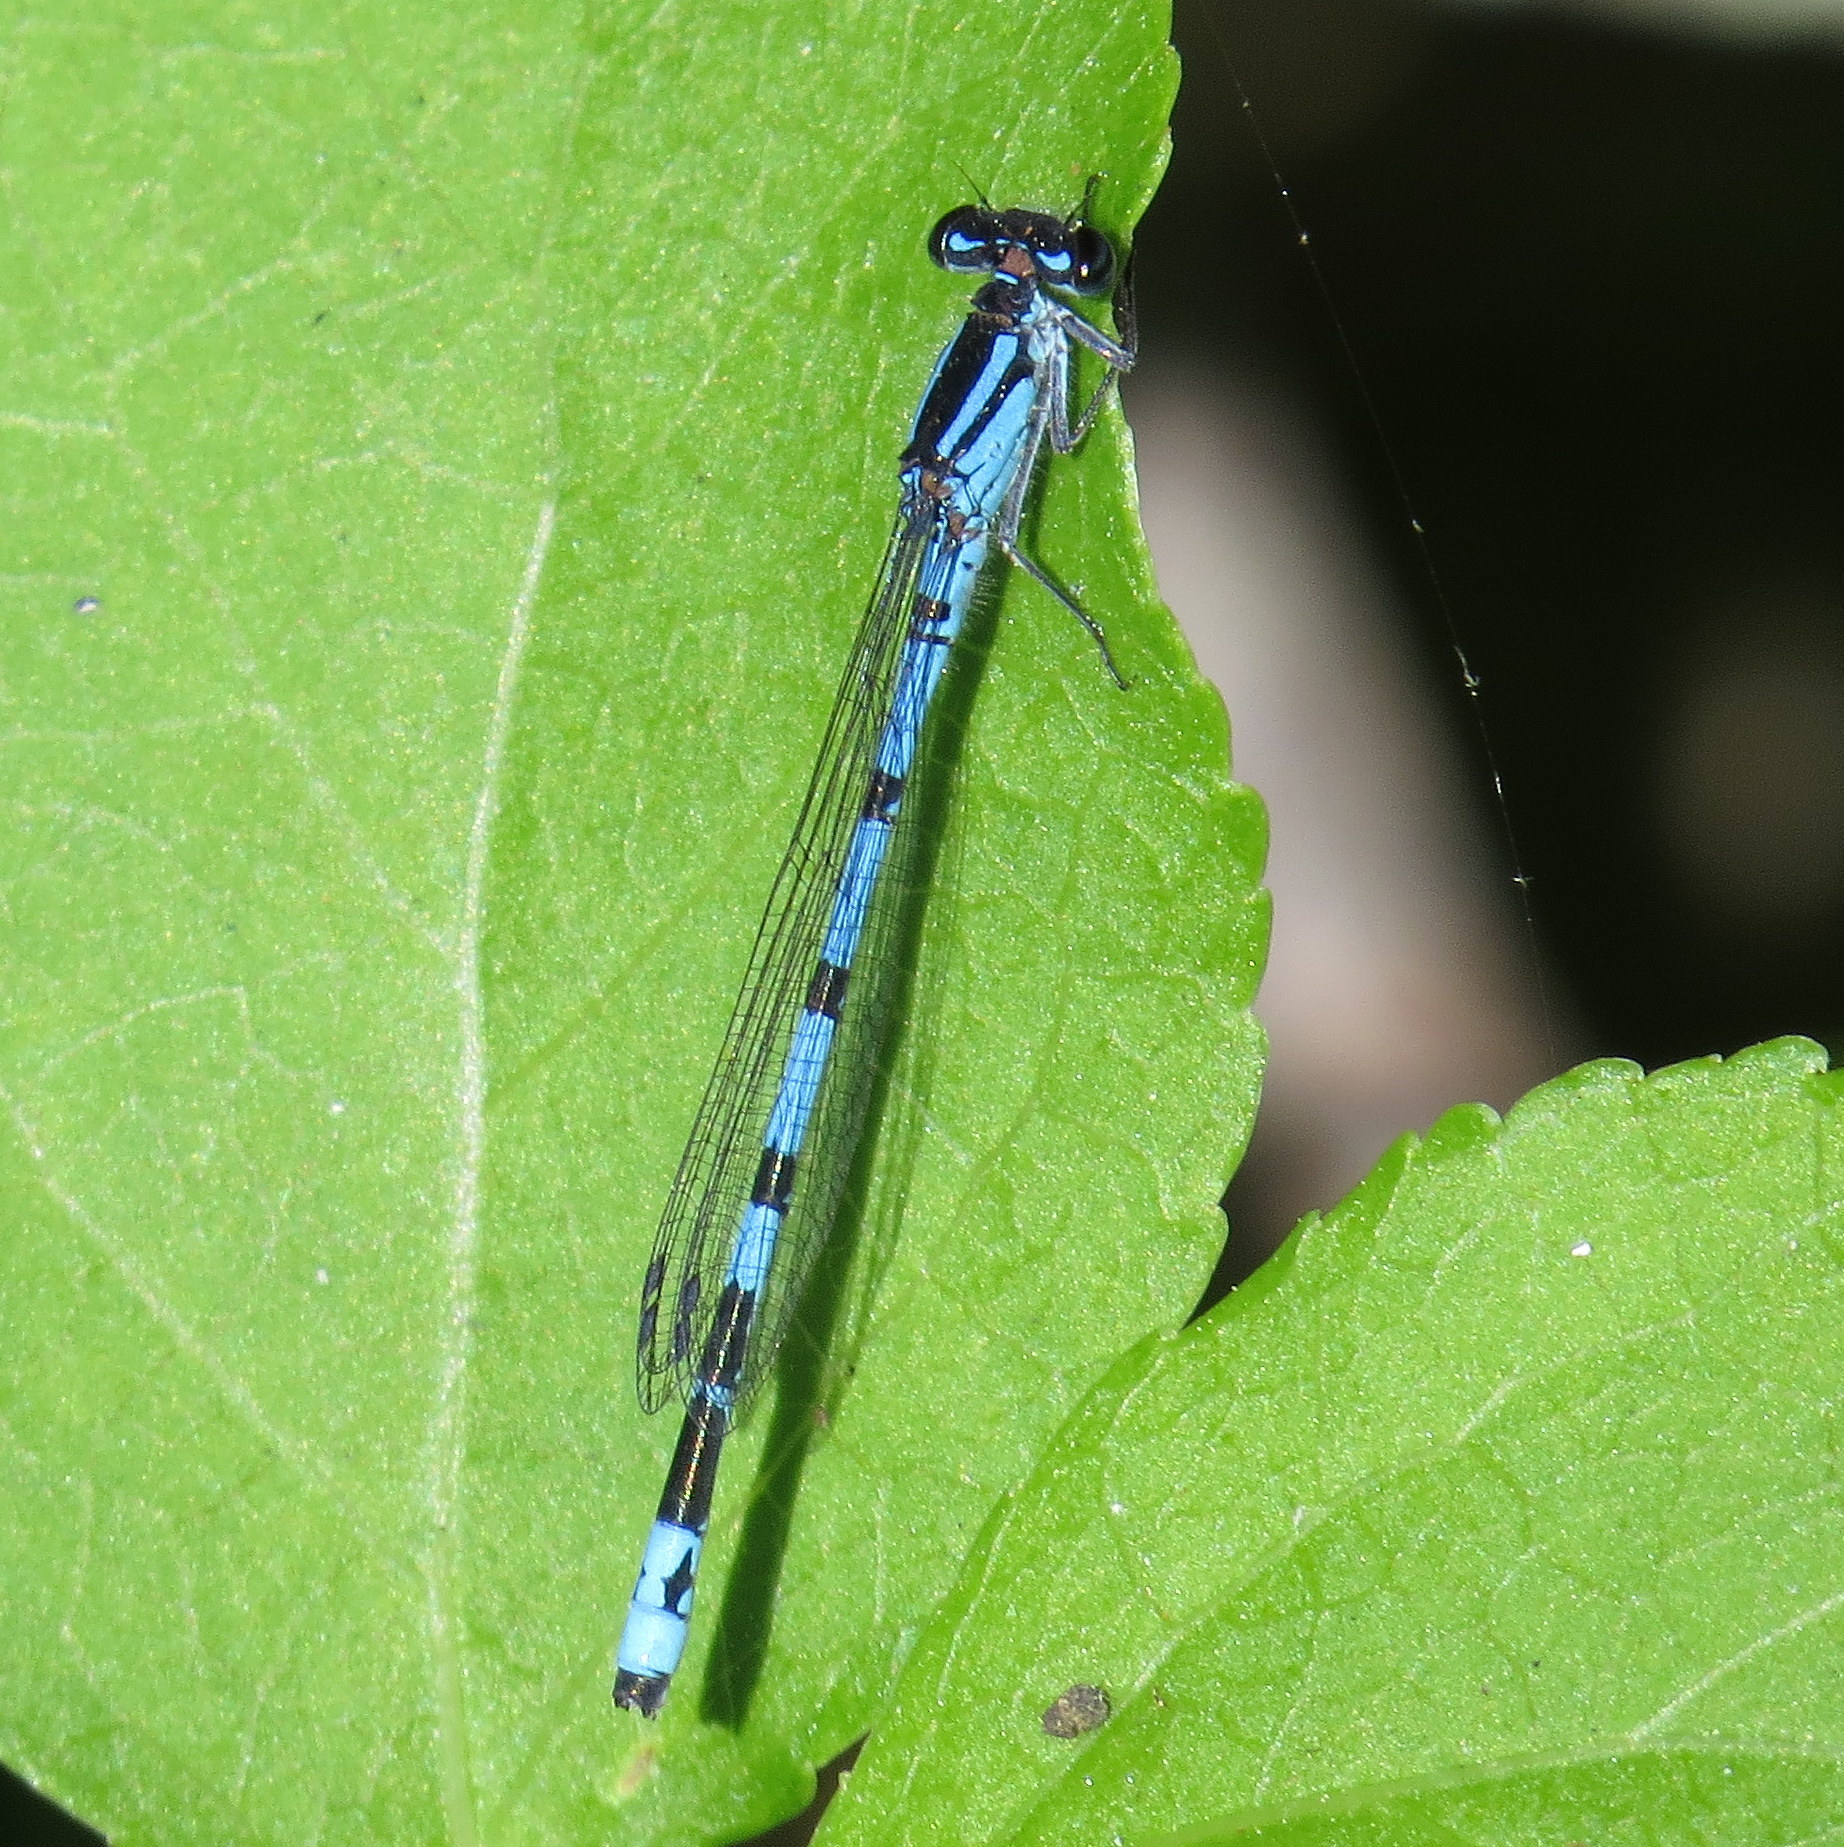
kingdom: Animalia
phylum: Arthropoda
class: Insecta
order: Odonata
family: Coenagrionidae
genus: Enallagma
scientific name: Enallagma laterale
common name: New england bluet
